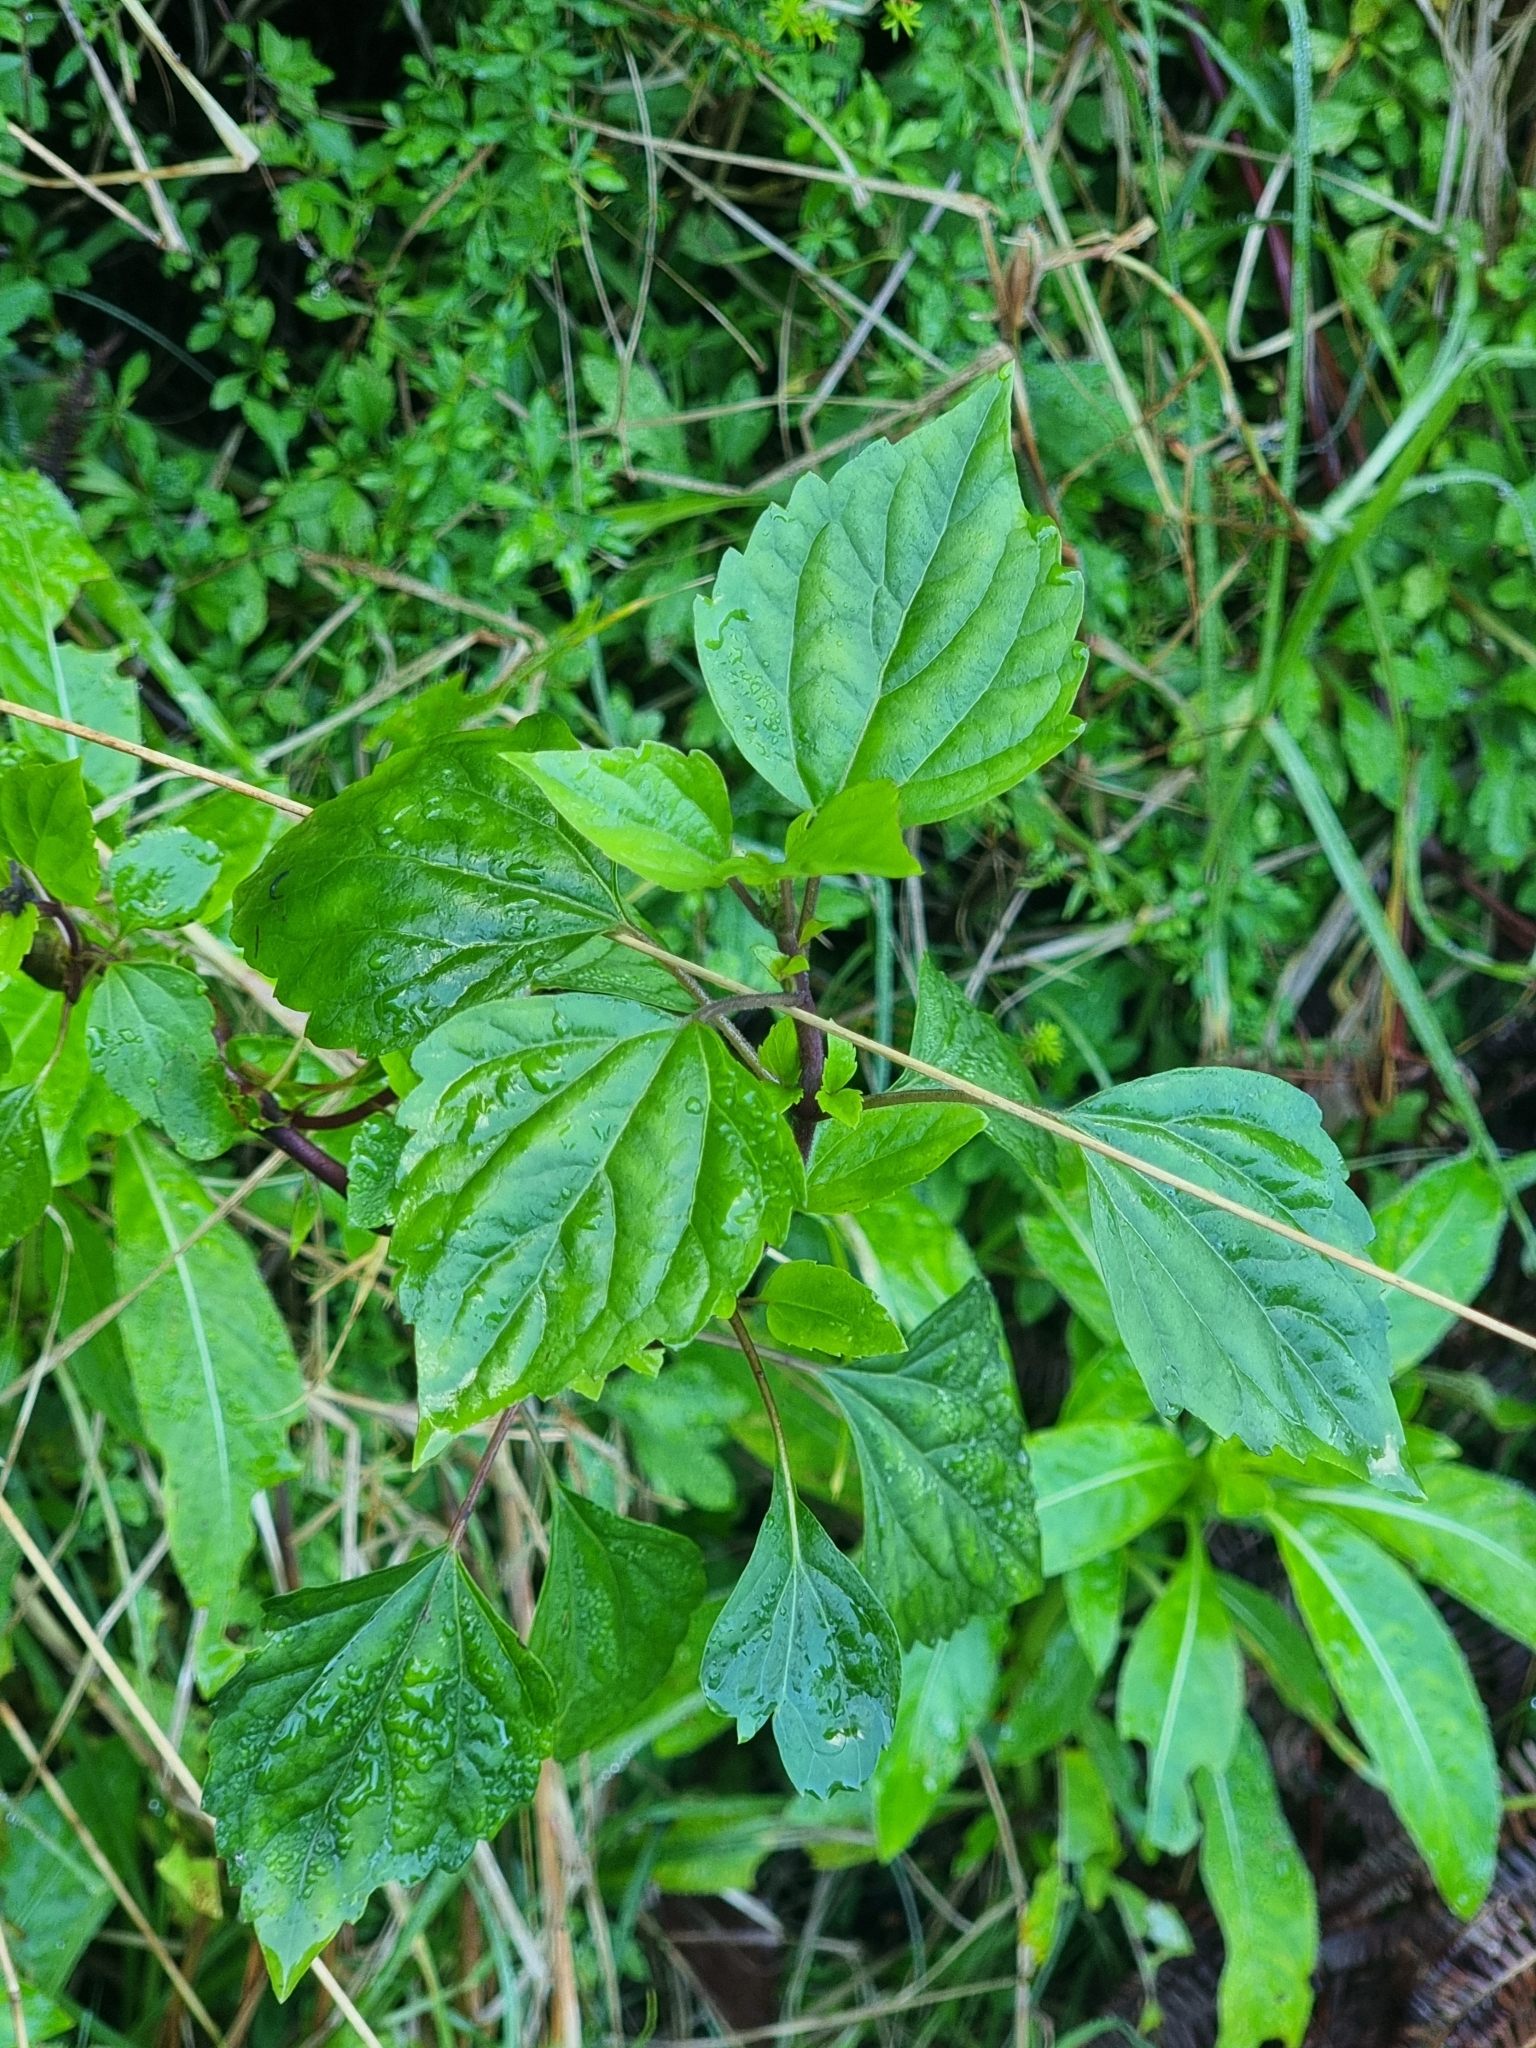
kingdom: Plantae
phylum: Tracheophyta
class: Magnoliopsida
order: Asterales
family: Asteraceae
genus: Ageratina
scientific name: Ageratina adenophora
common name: Sticky snakeroot
